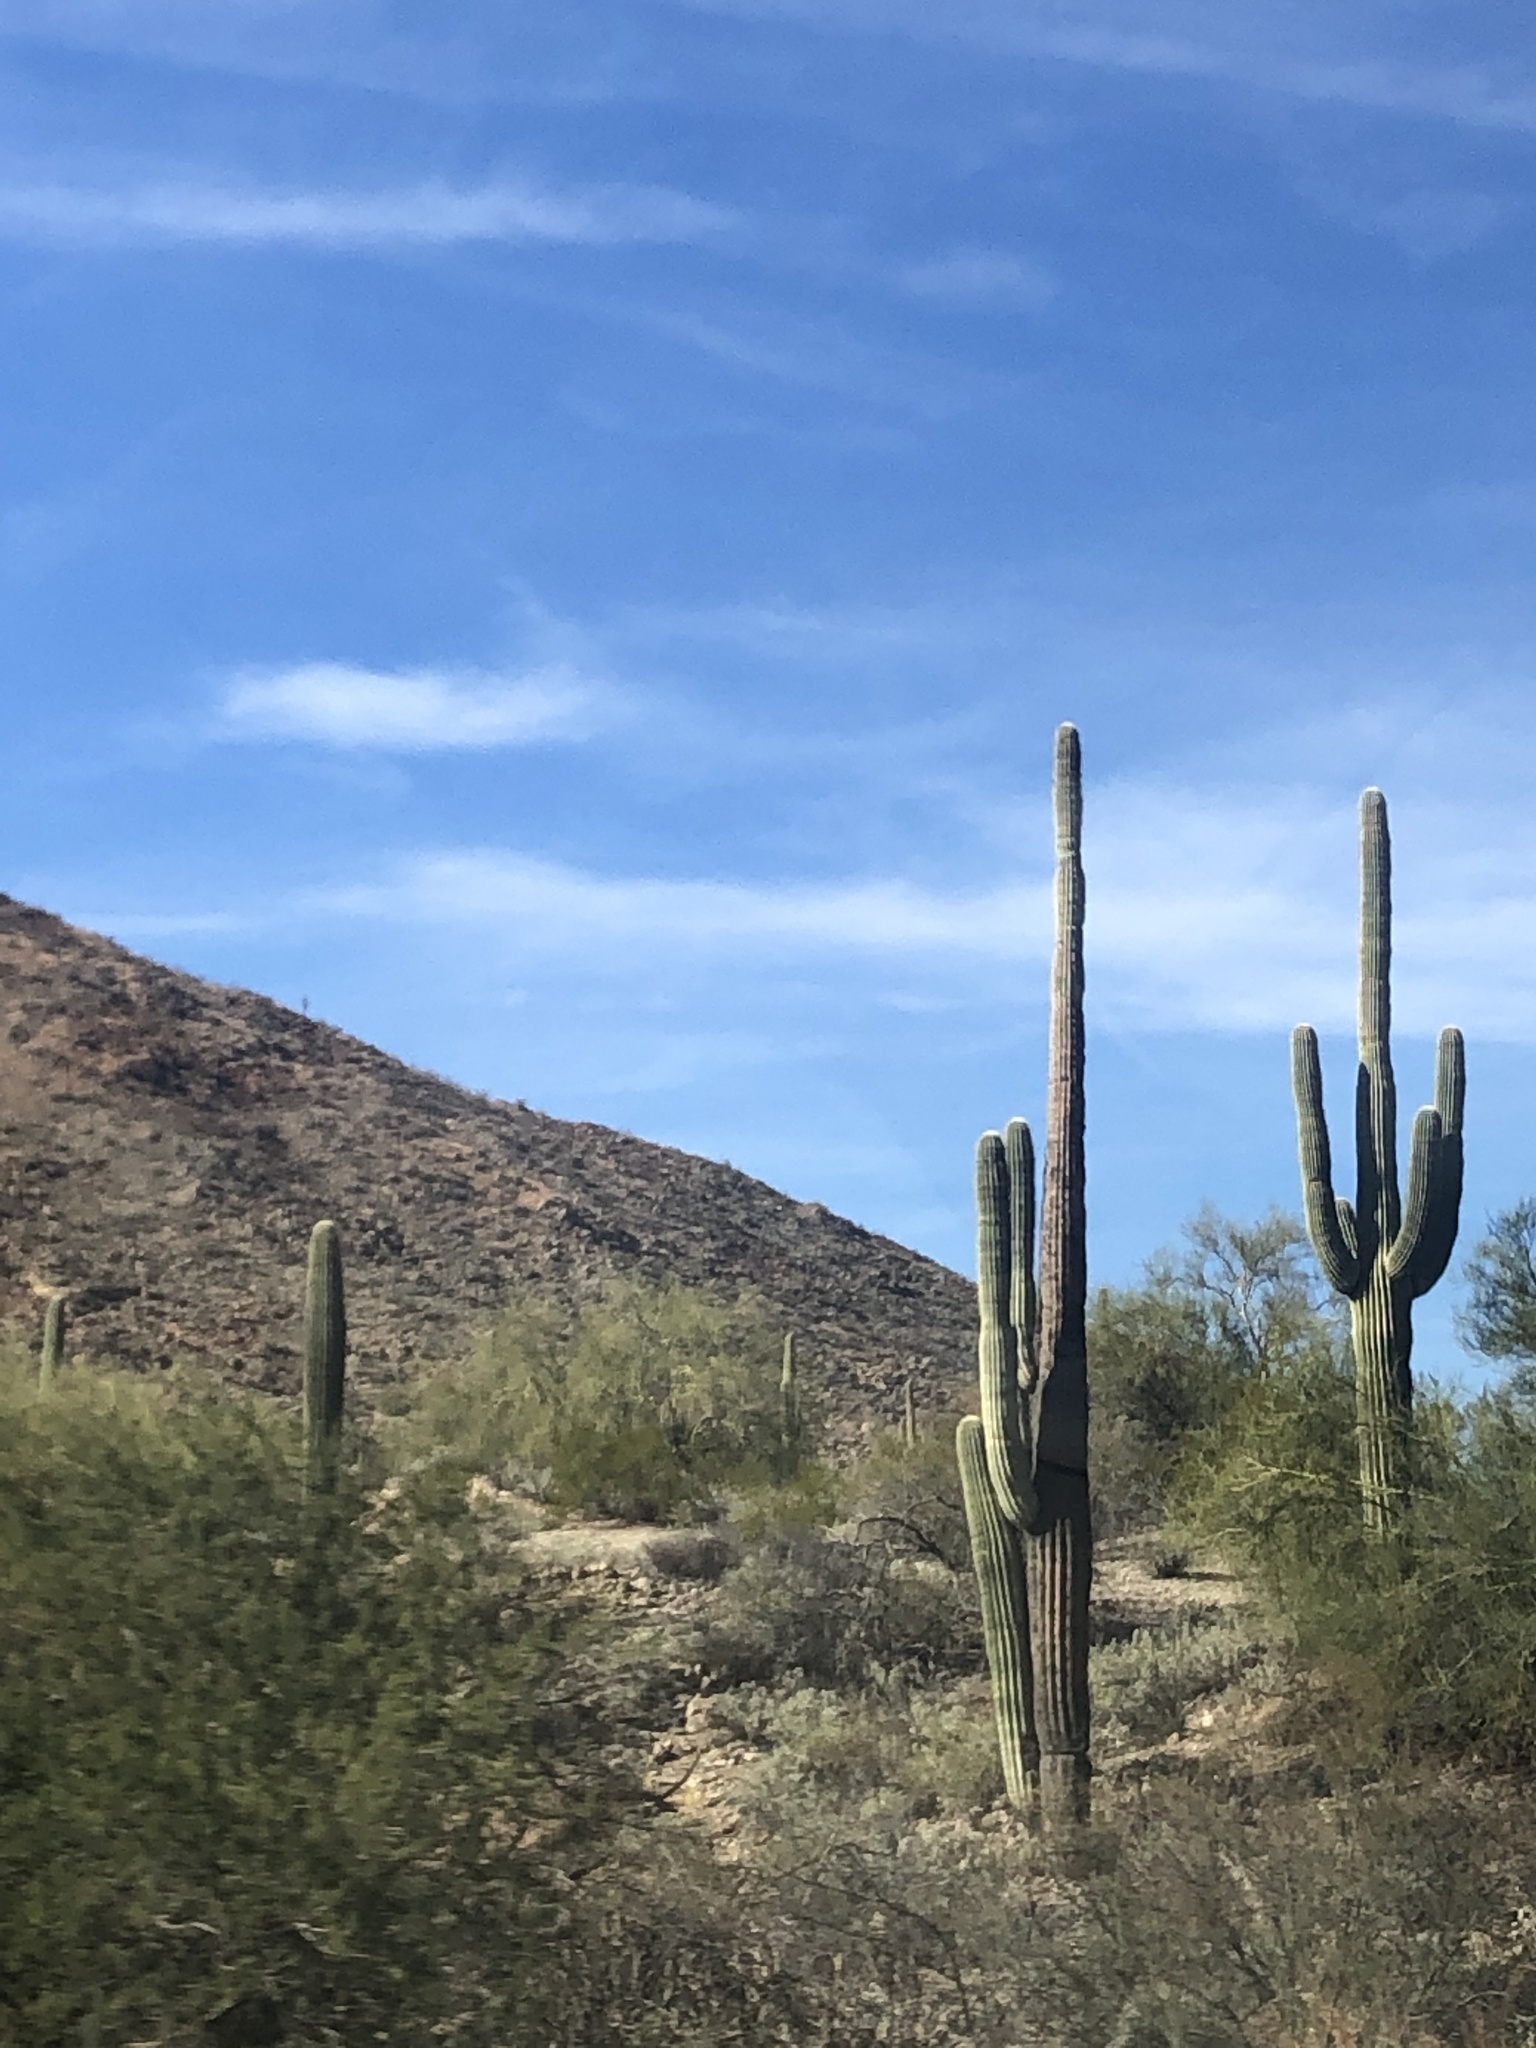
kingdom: Plantae
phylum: Tracheophyta
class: Magnoliopsida
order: Caryophyllales
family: Cactaceae
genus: Carnegiea
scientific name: Carnegiea gigantea
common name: Saguaro
